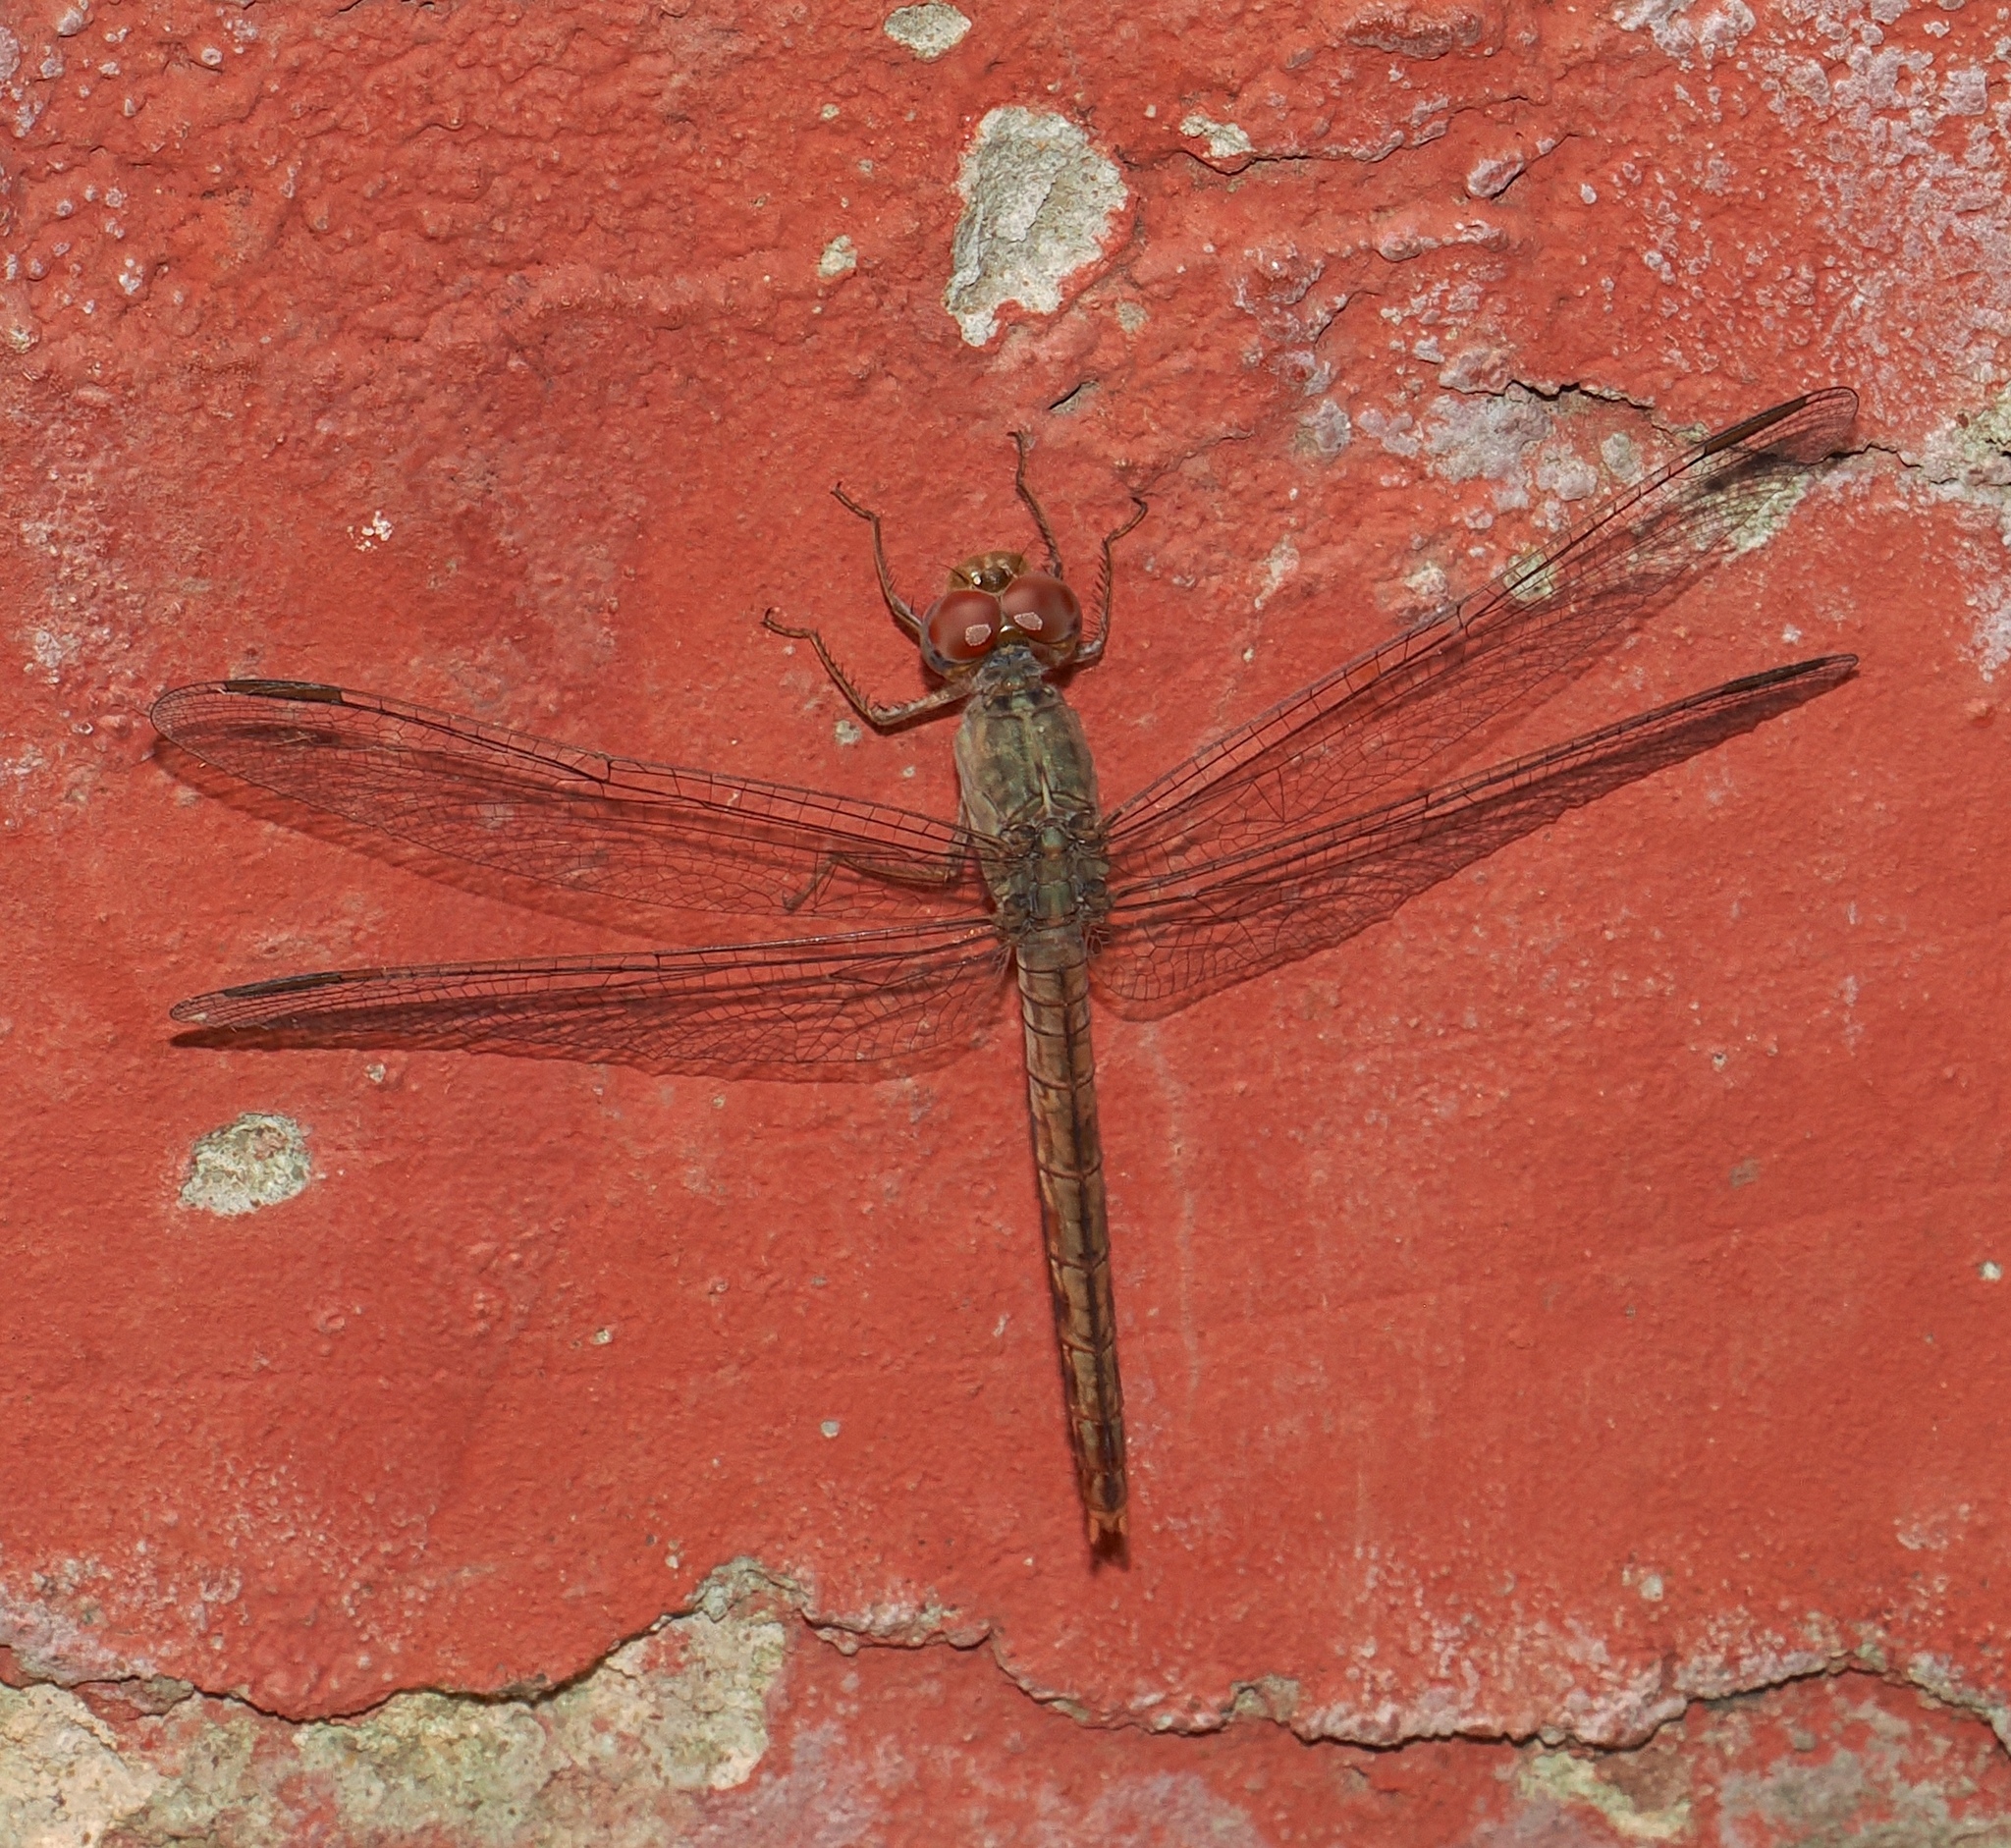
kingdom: Animalia
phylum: Arthropoda
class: Insecta
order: Odonata
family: Libellulidae
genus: Crocothemis
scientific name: Crocothemis divisa
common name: Divisa scarlet
